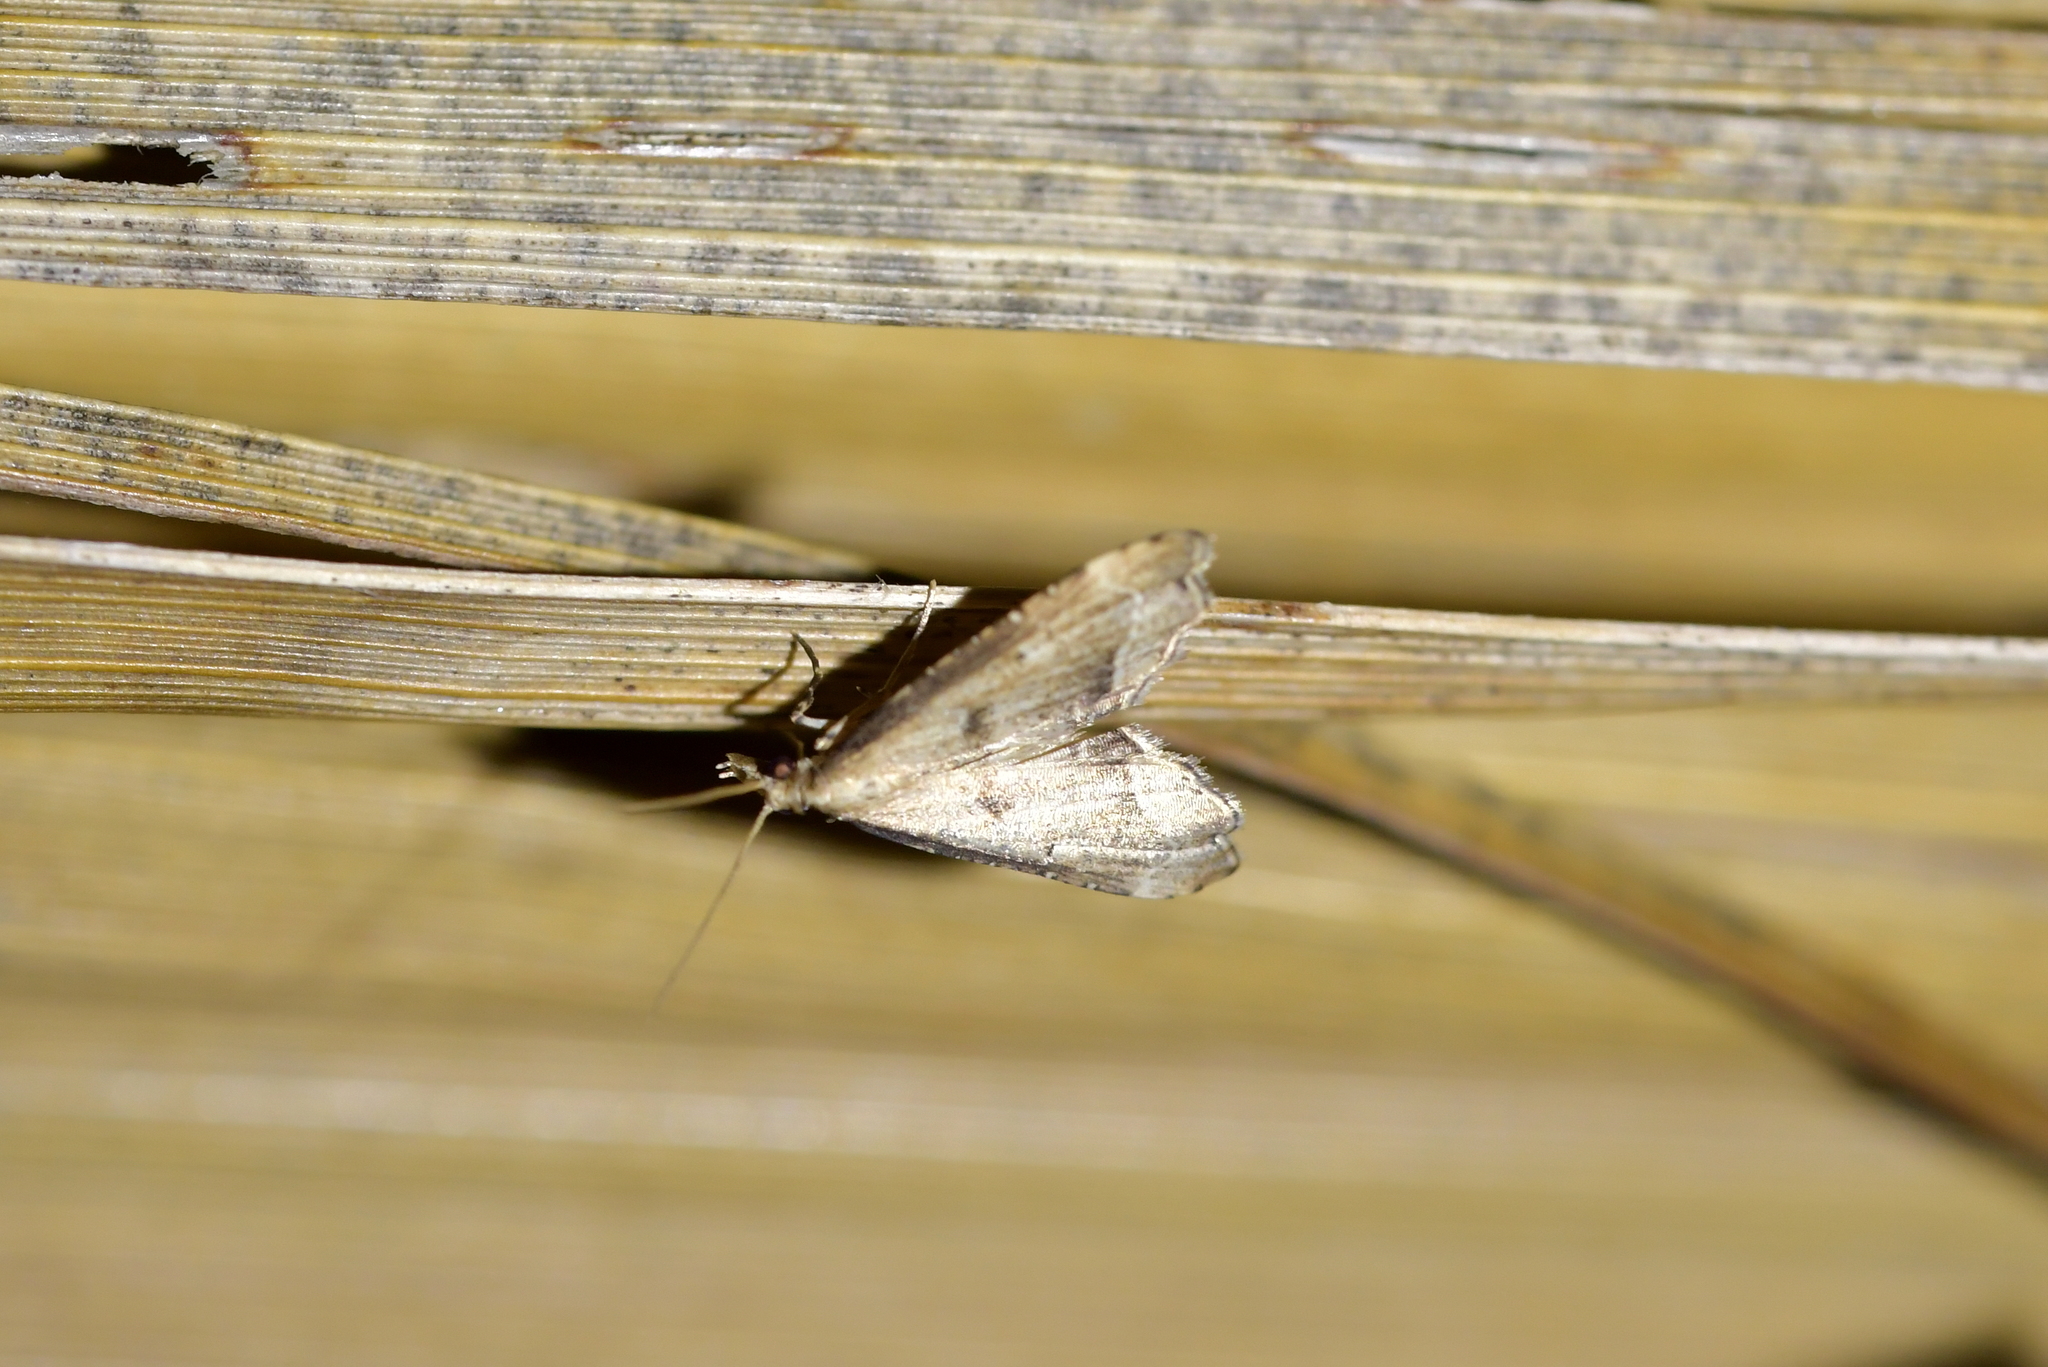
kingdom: Animalia
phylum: Arthropoda
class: Insecta
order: Lepidoptera
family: Crambidae
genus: Diplopseustis
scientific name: Diplopseustis perieresalis
